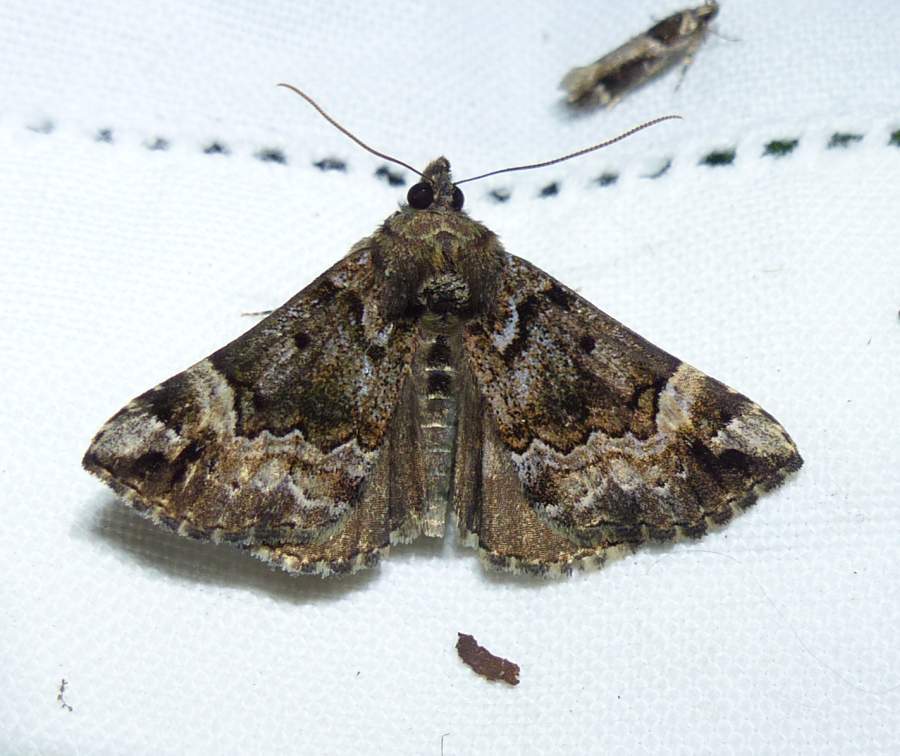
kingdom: Animalia
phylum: Arthropoda
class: Insecta
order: Lepidoptera
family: Erebidae
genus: Hypena
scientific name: Hypena palparia
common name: Mottled bomolocha moth
